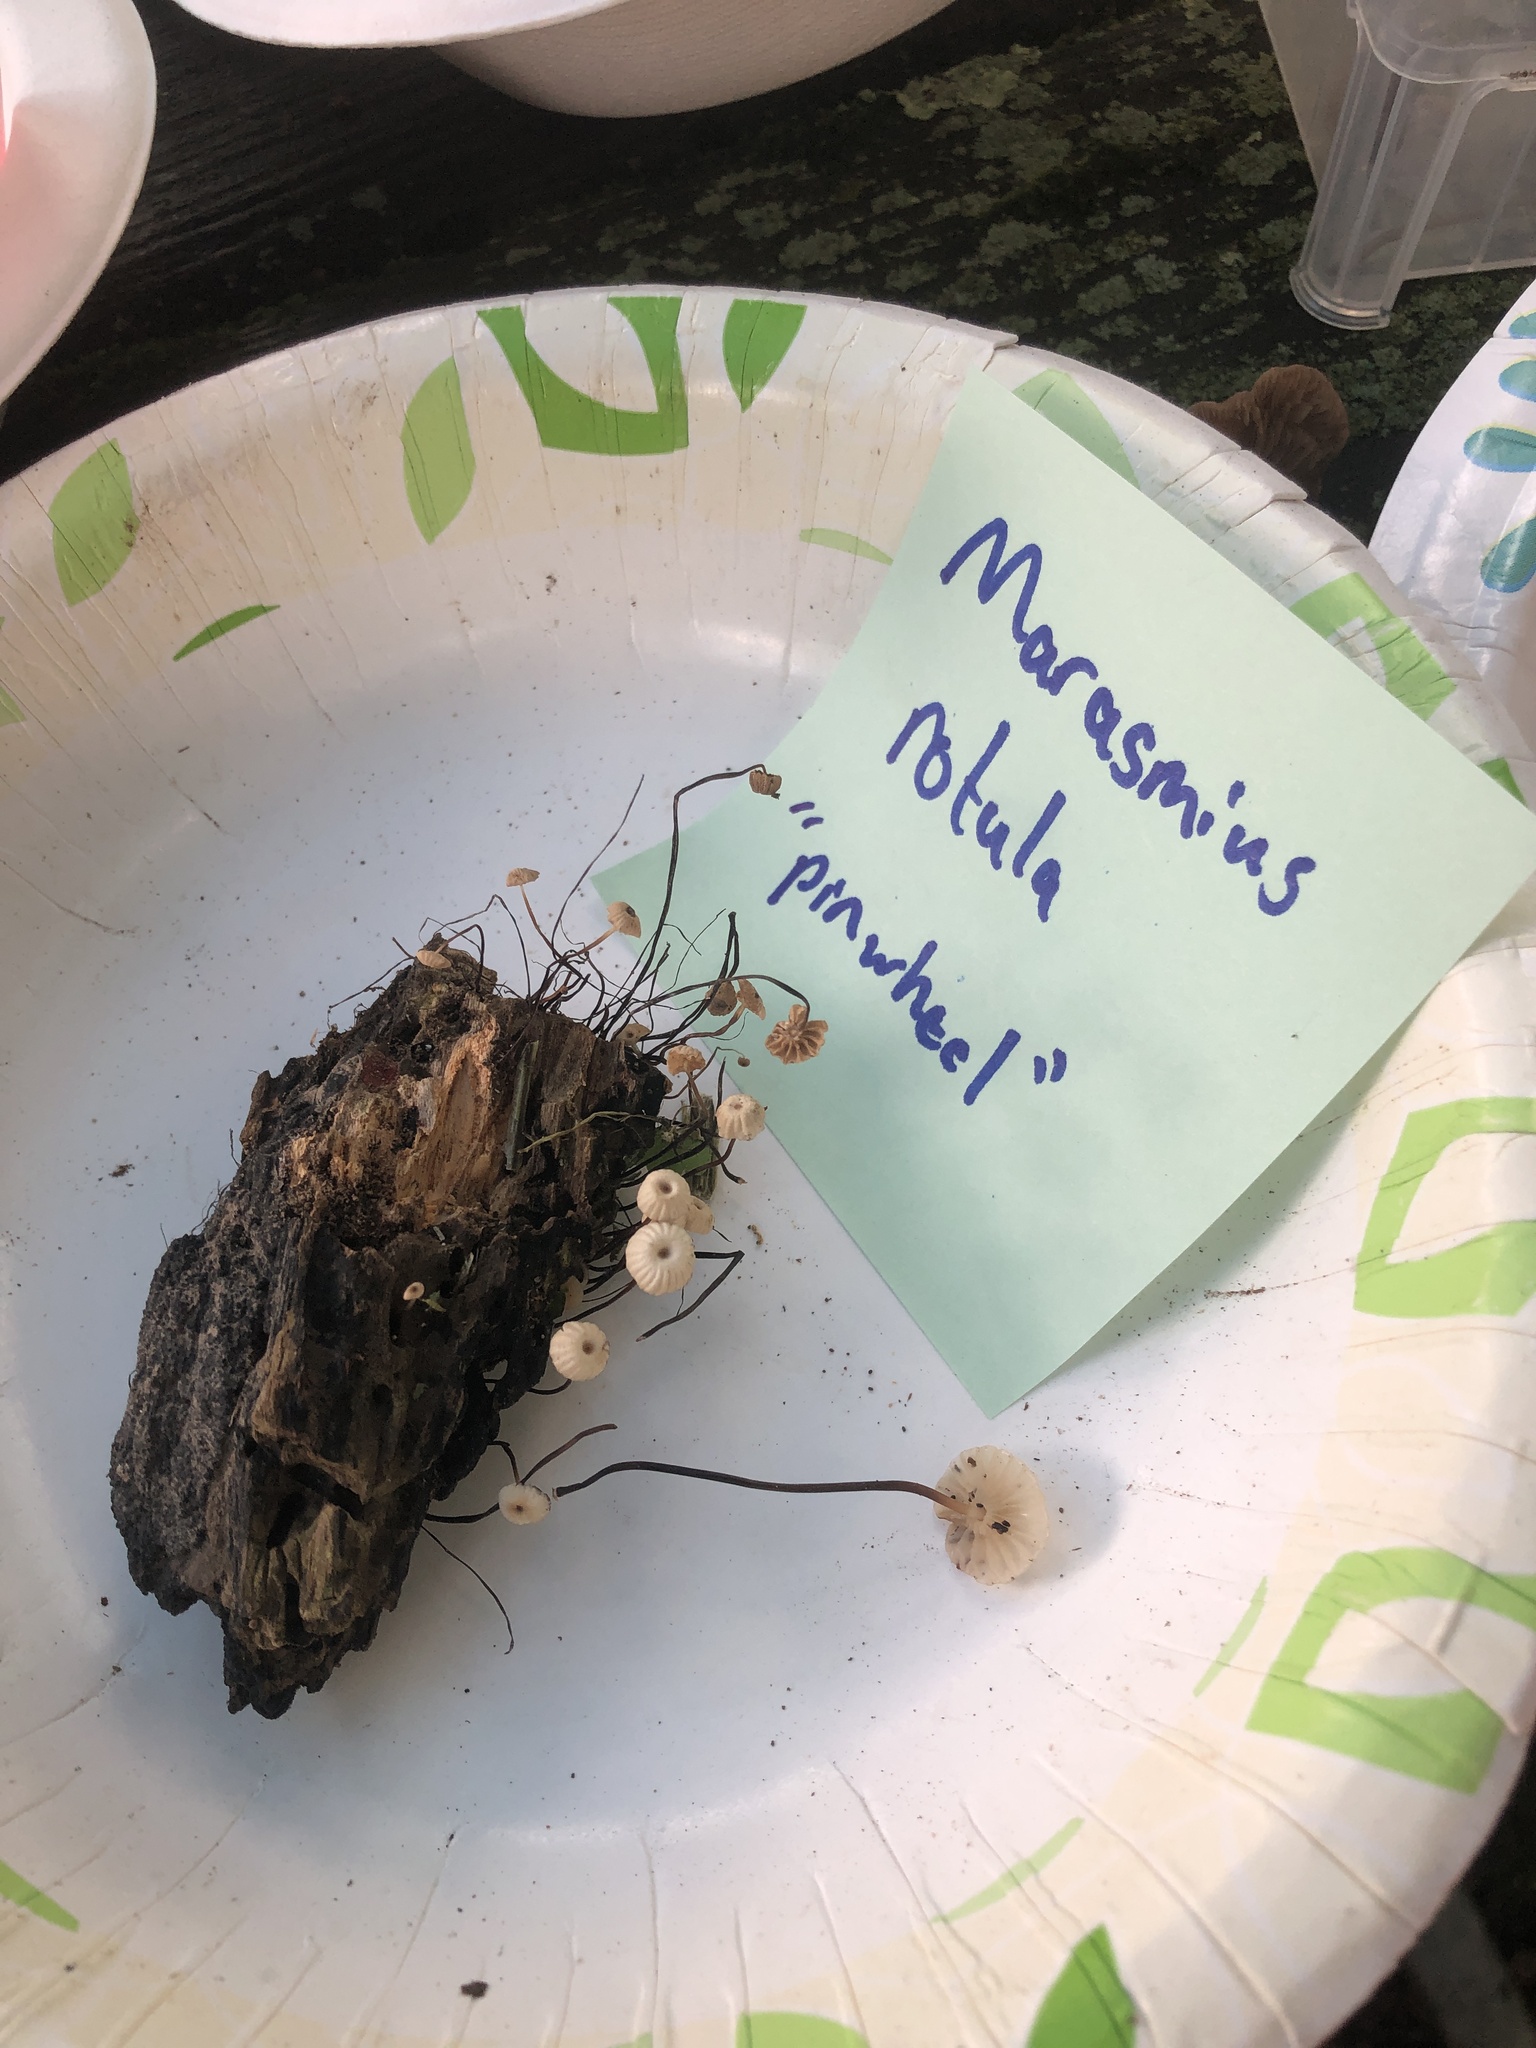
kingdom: Fungi
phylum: Basidiomycota
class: Agaricomycetes
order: Agaricales
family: Marasmiaceae
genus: Marasmius
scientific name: Marasmius rotula
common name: Collared parachute
